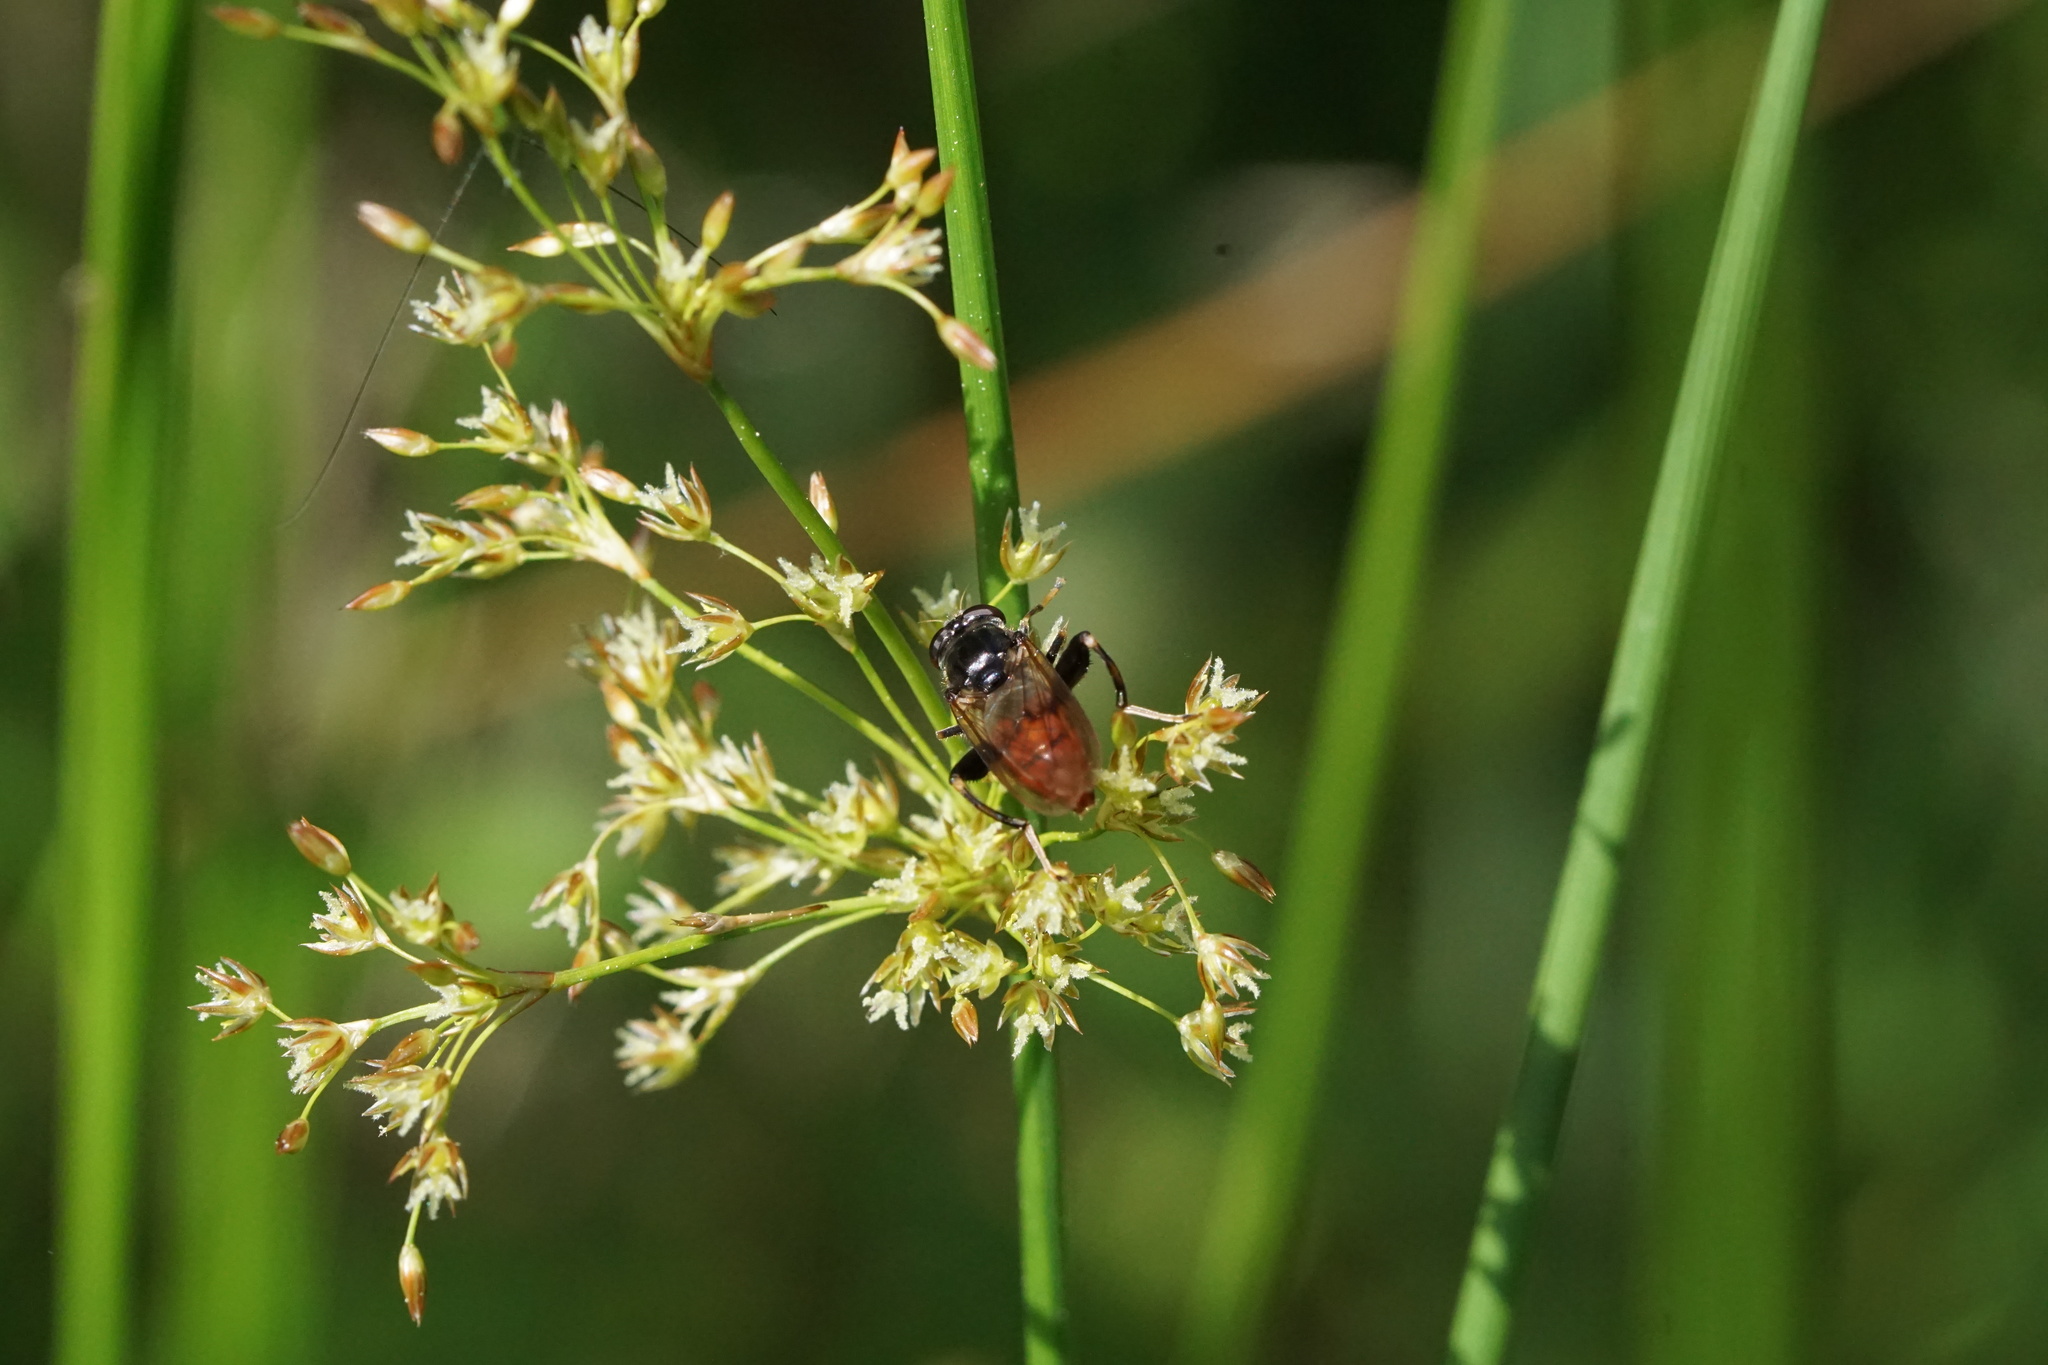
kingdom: Animalia
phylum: Arthropoda
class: Insecta
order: Diptera
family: Syrphidae
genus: Chalcosyrphus
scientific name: Chalcosyrphus libo
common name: Long-haired forest fly
